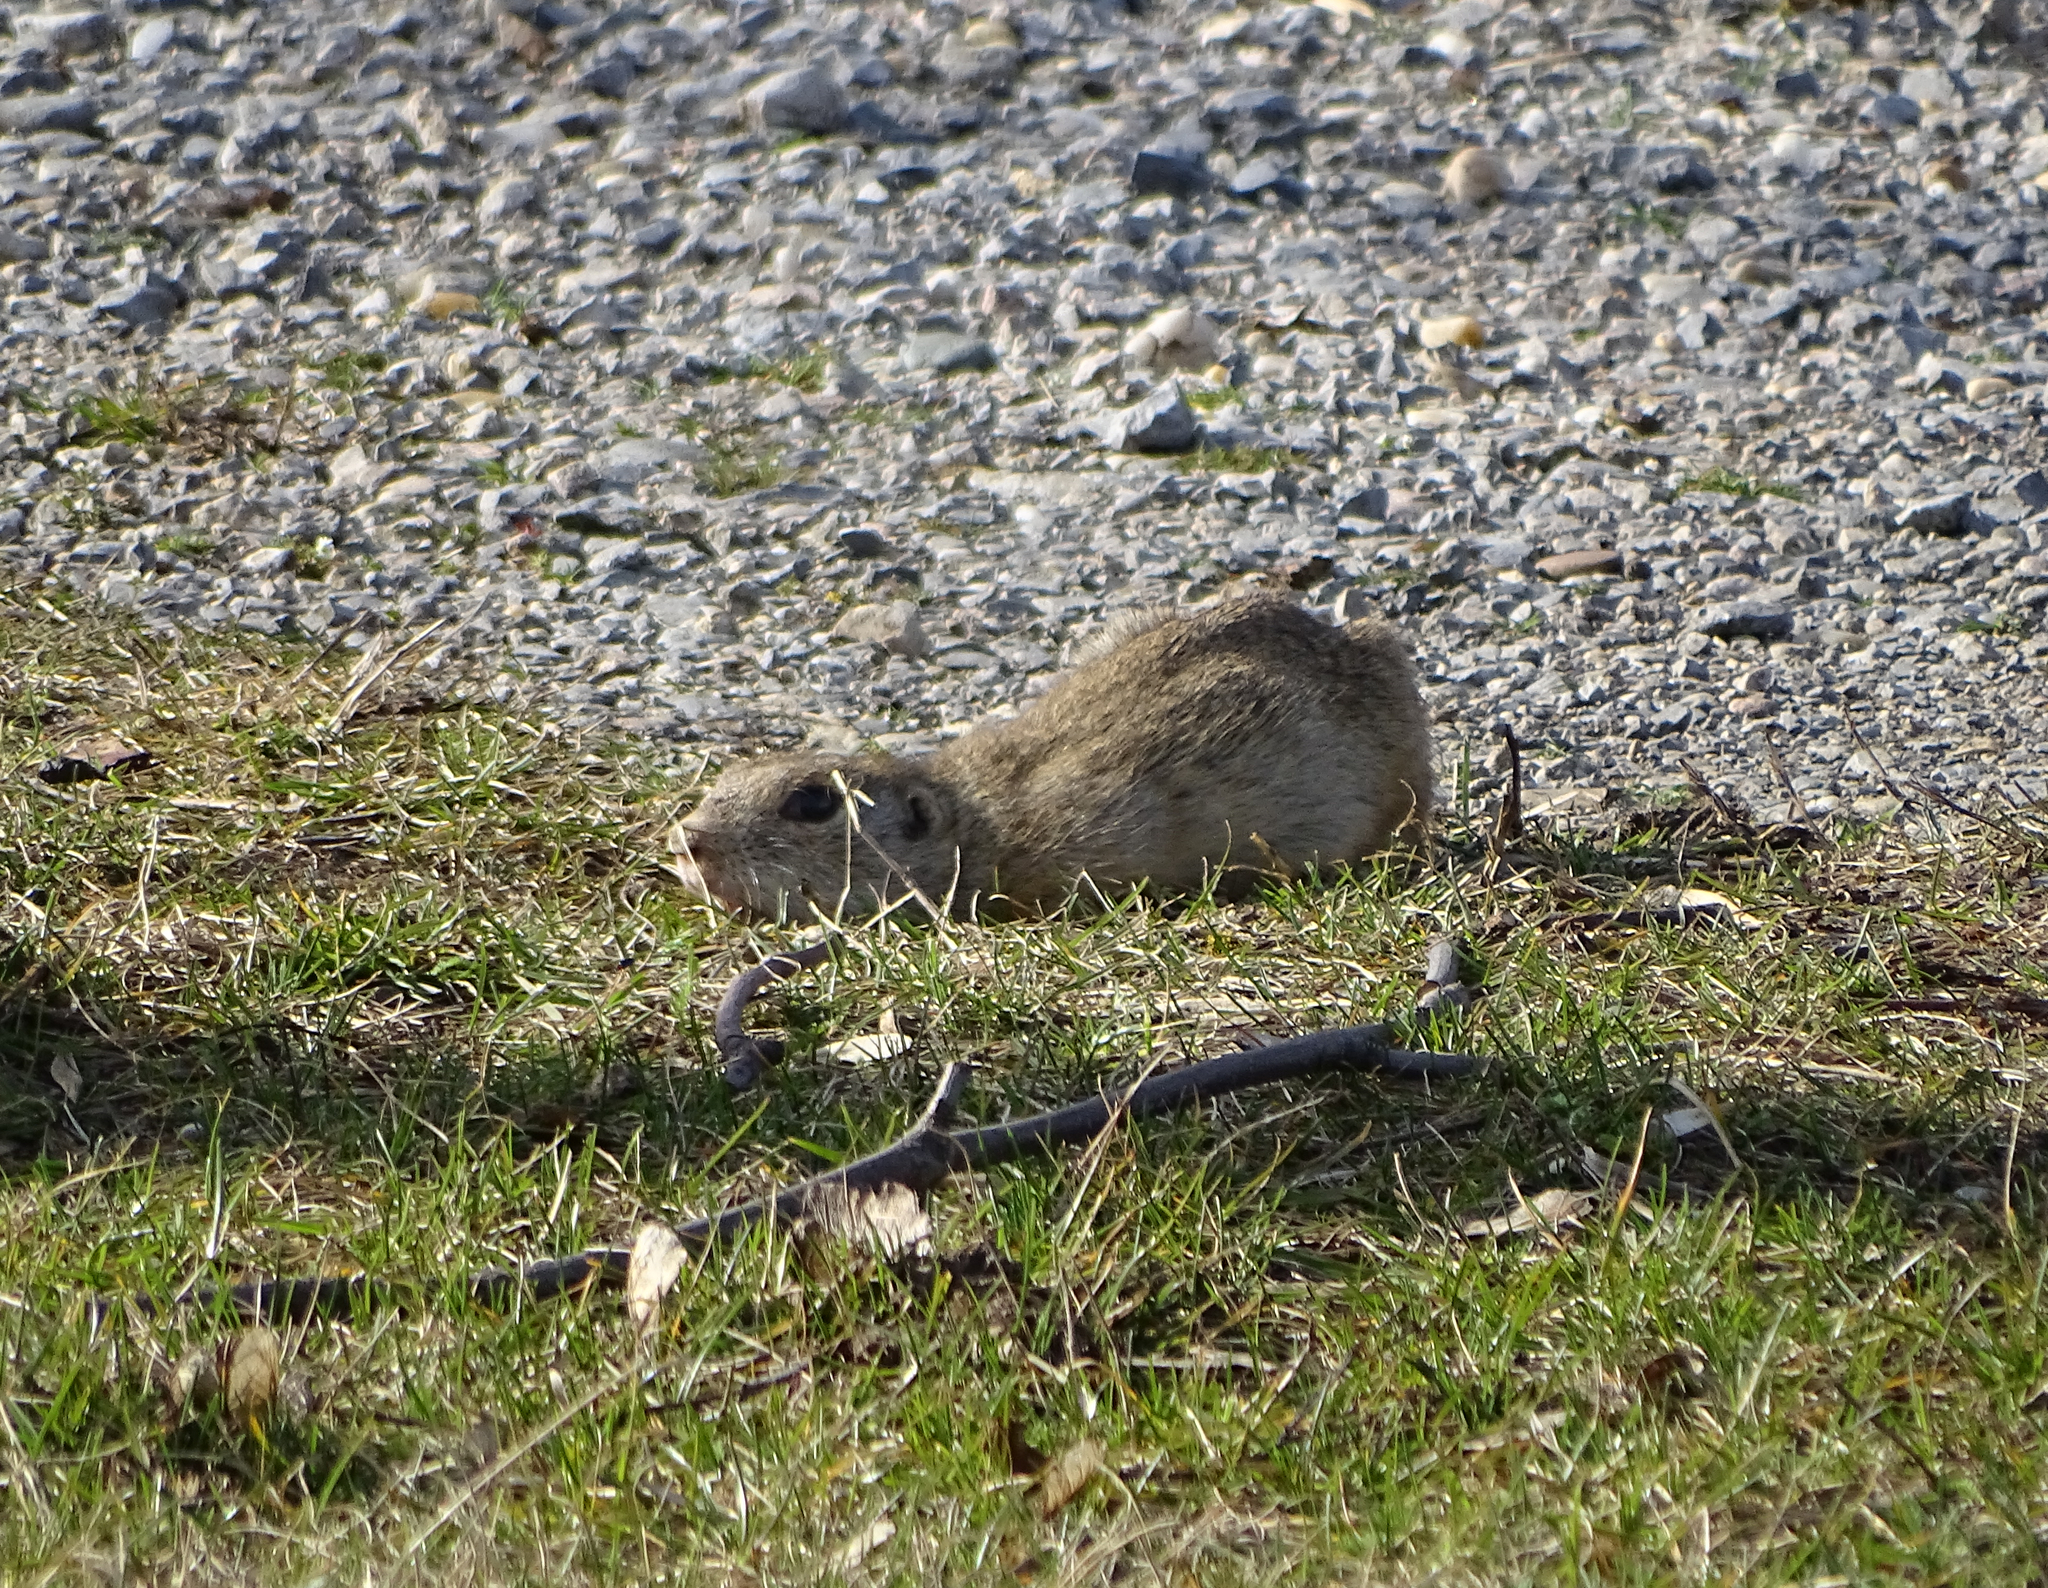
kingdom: Animalia
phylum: Chordata
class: Mammalia
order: Rodentia
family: Sciuridae
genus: Spermophilus
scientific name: Spermophilus citellus
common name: European ground squirrel
